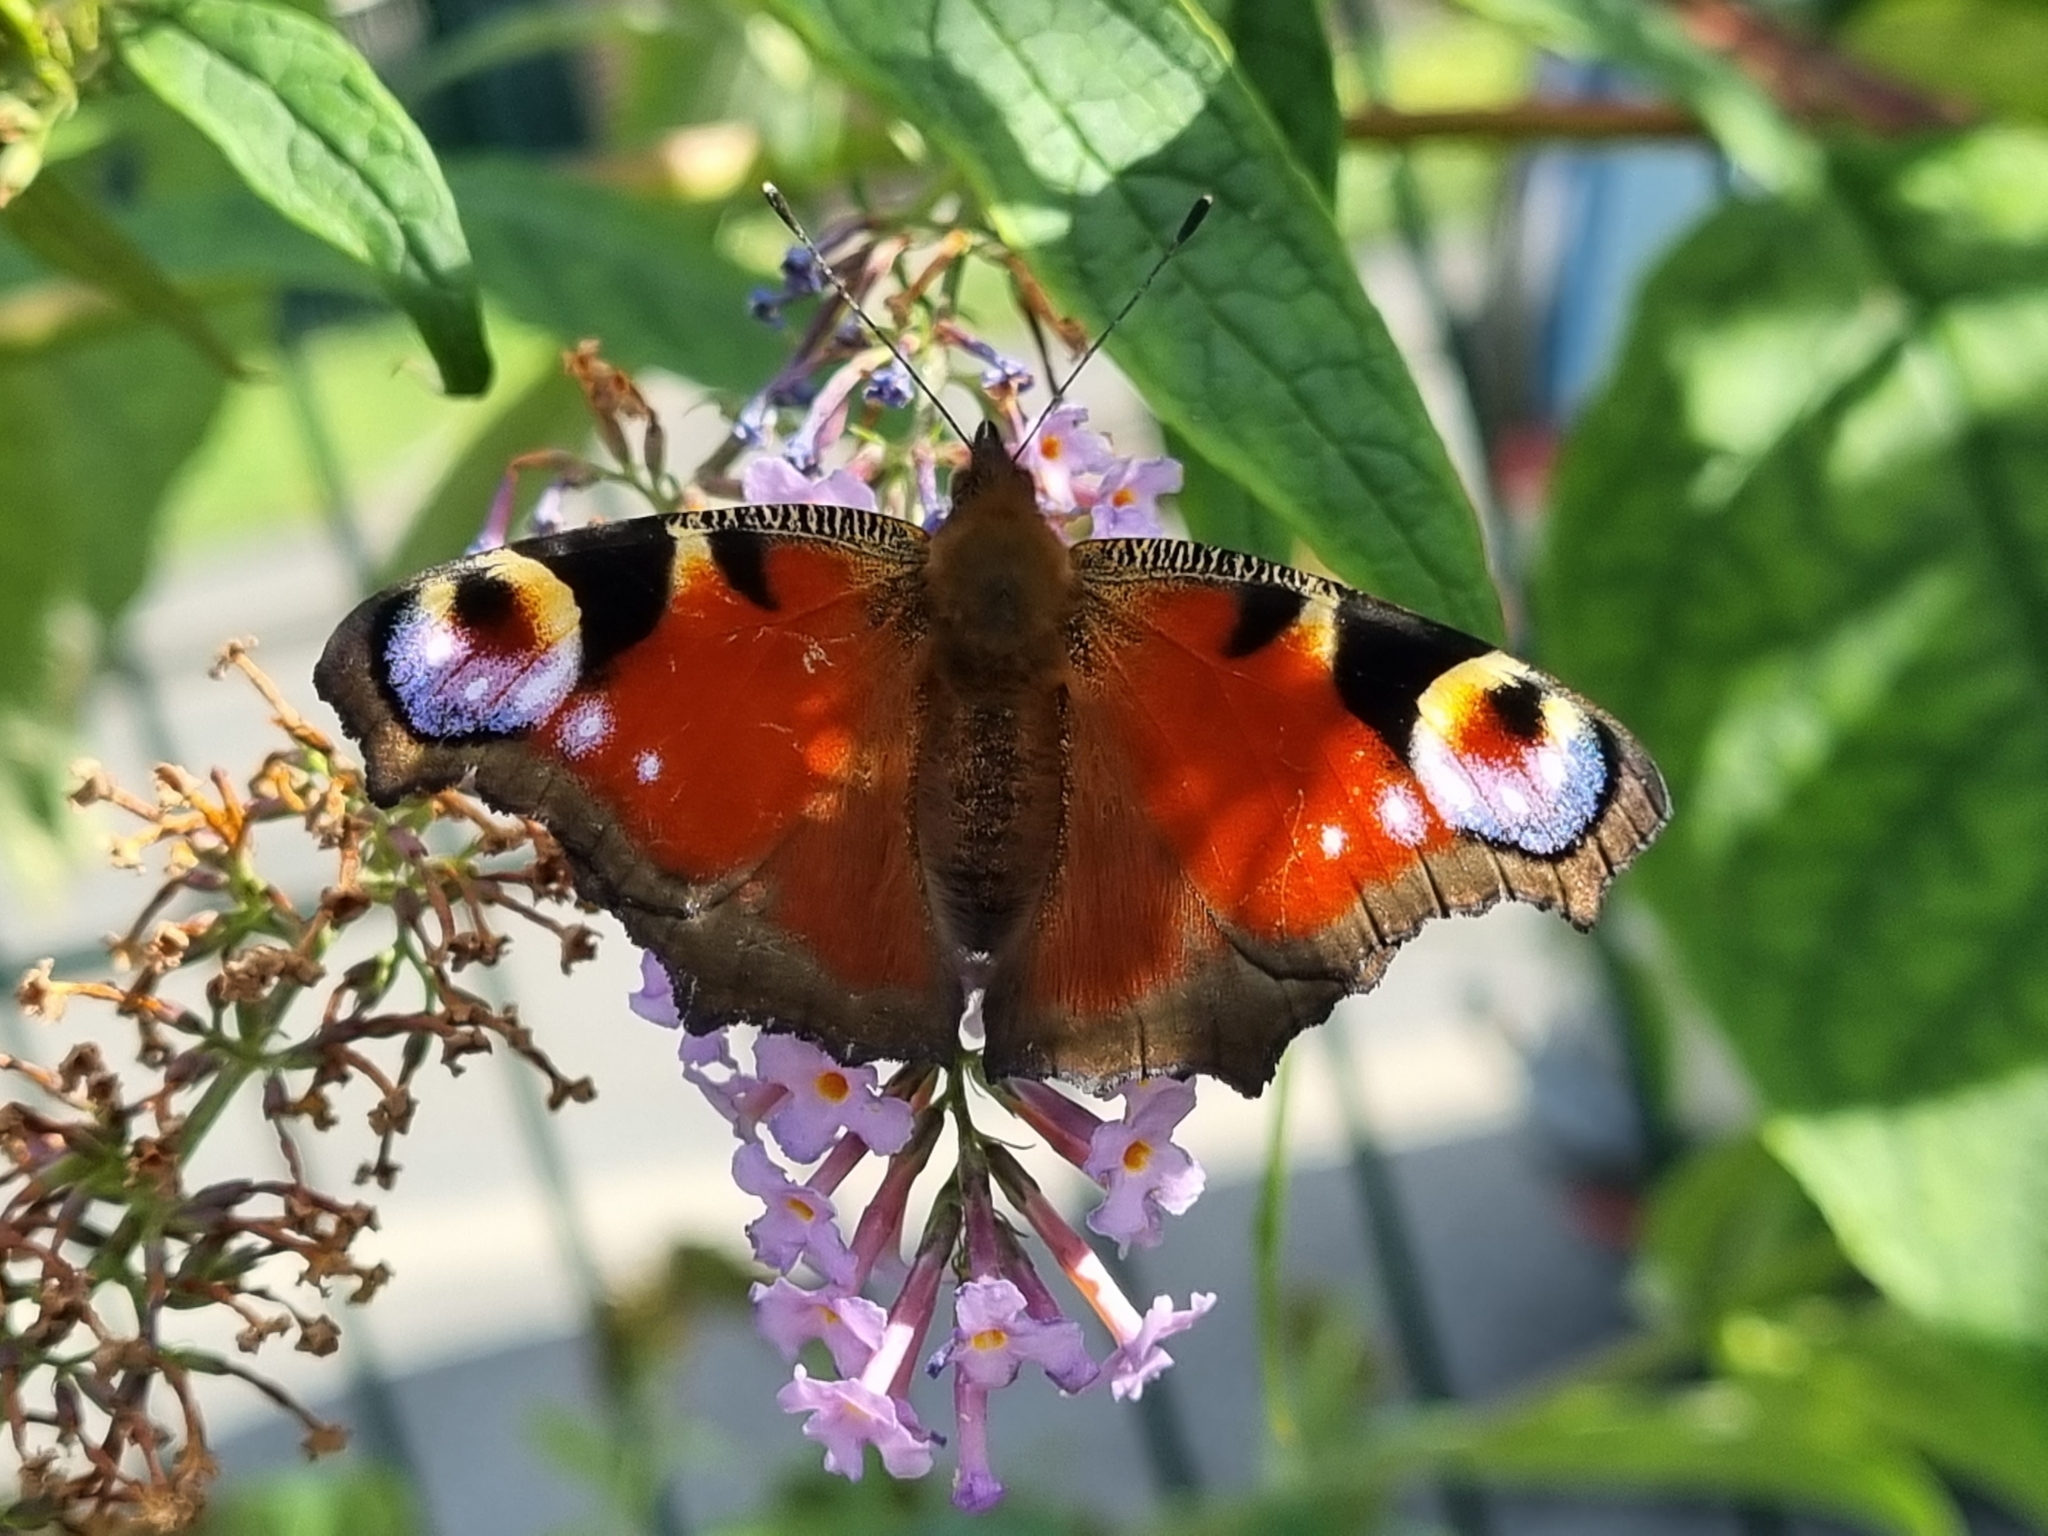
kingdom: Animalia
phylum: Arthropoda
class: Insecta
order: Lepidoptera
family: Nymphalidae
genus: Aglais
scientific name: Aglais io
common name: Peacock
